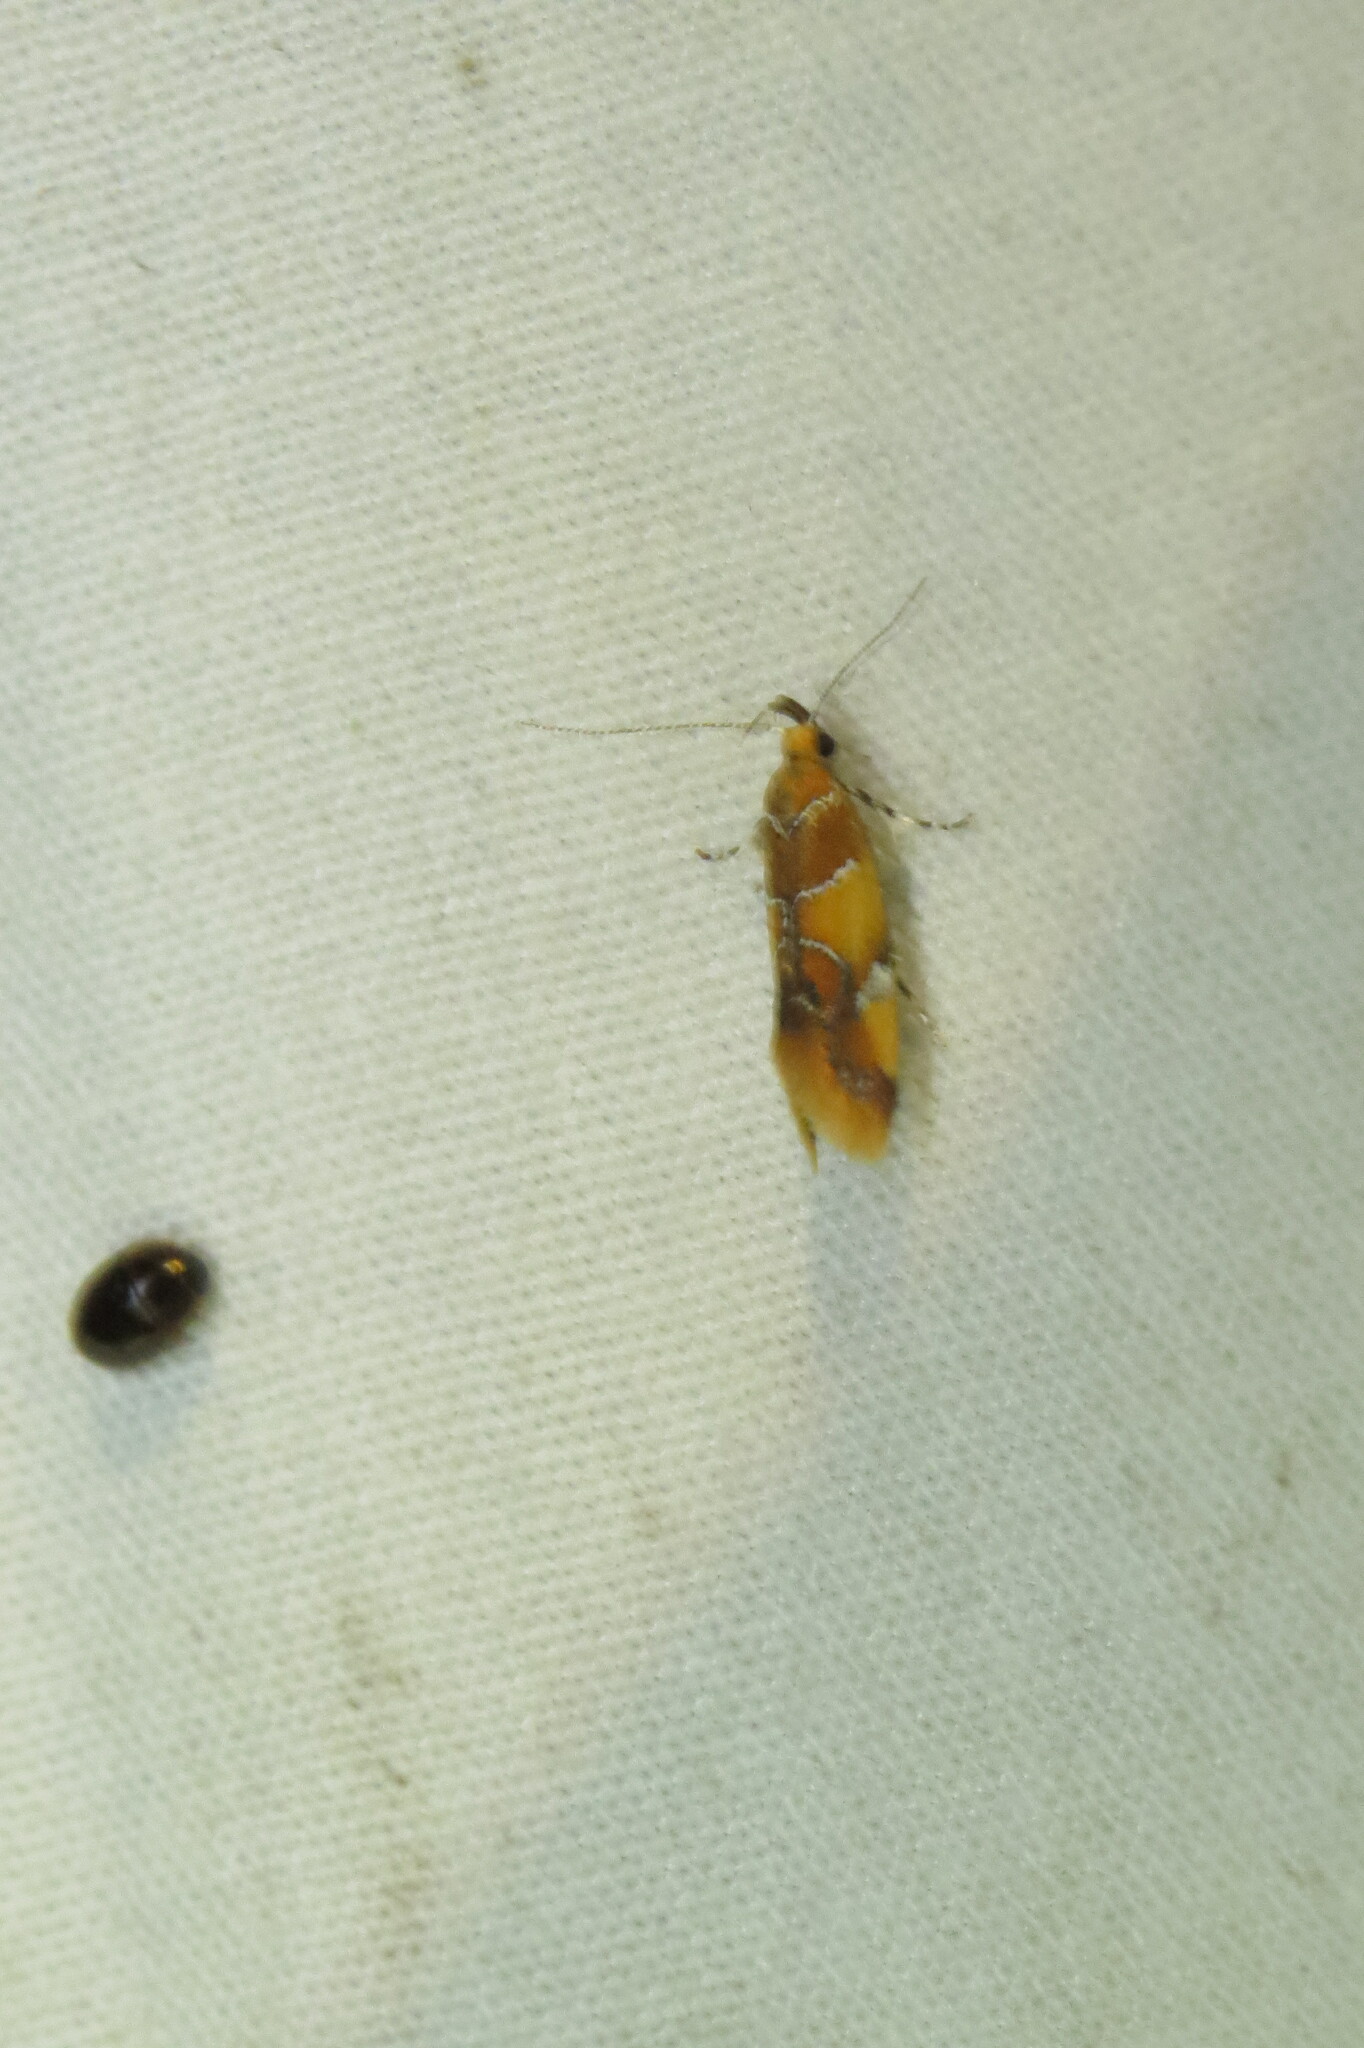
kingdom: Animalia
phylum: Arthropoda
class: Insecta
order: Lepidoptera
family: Oecophoridae
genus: Callima
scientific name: Callima argenticinctella
